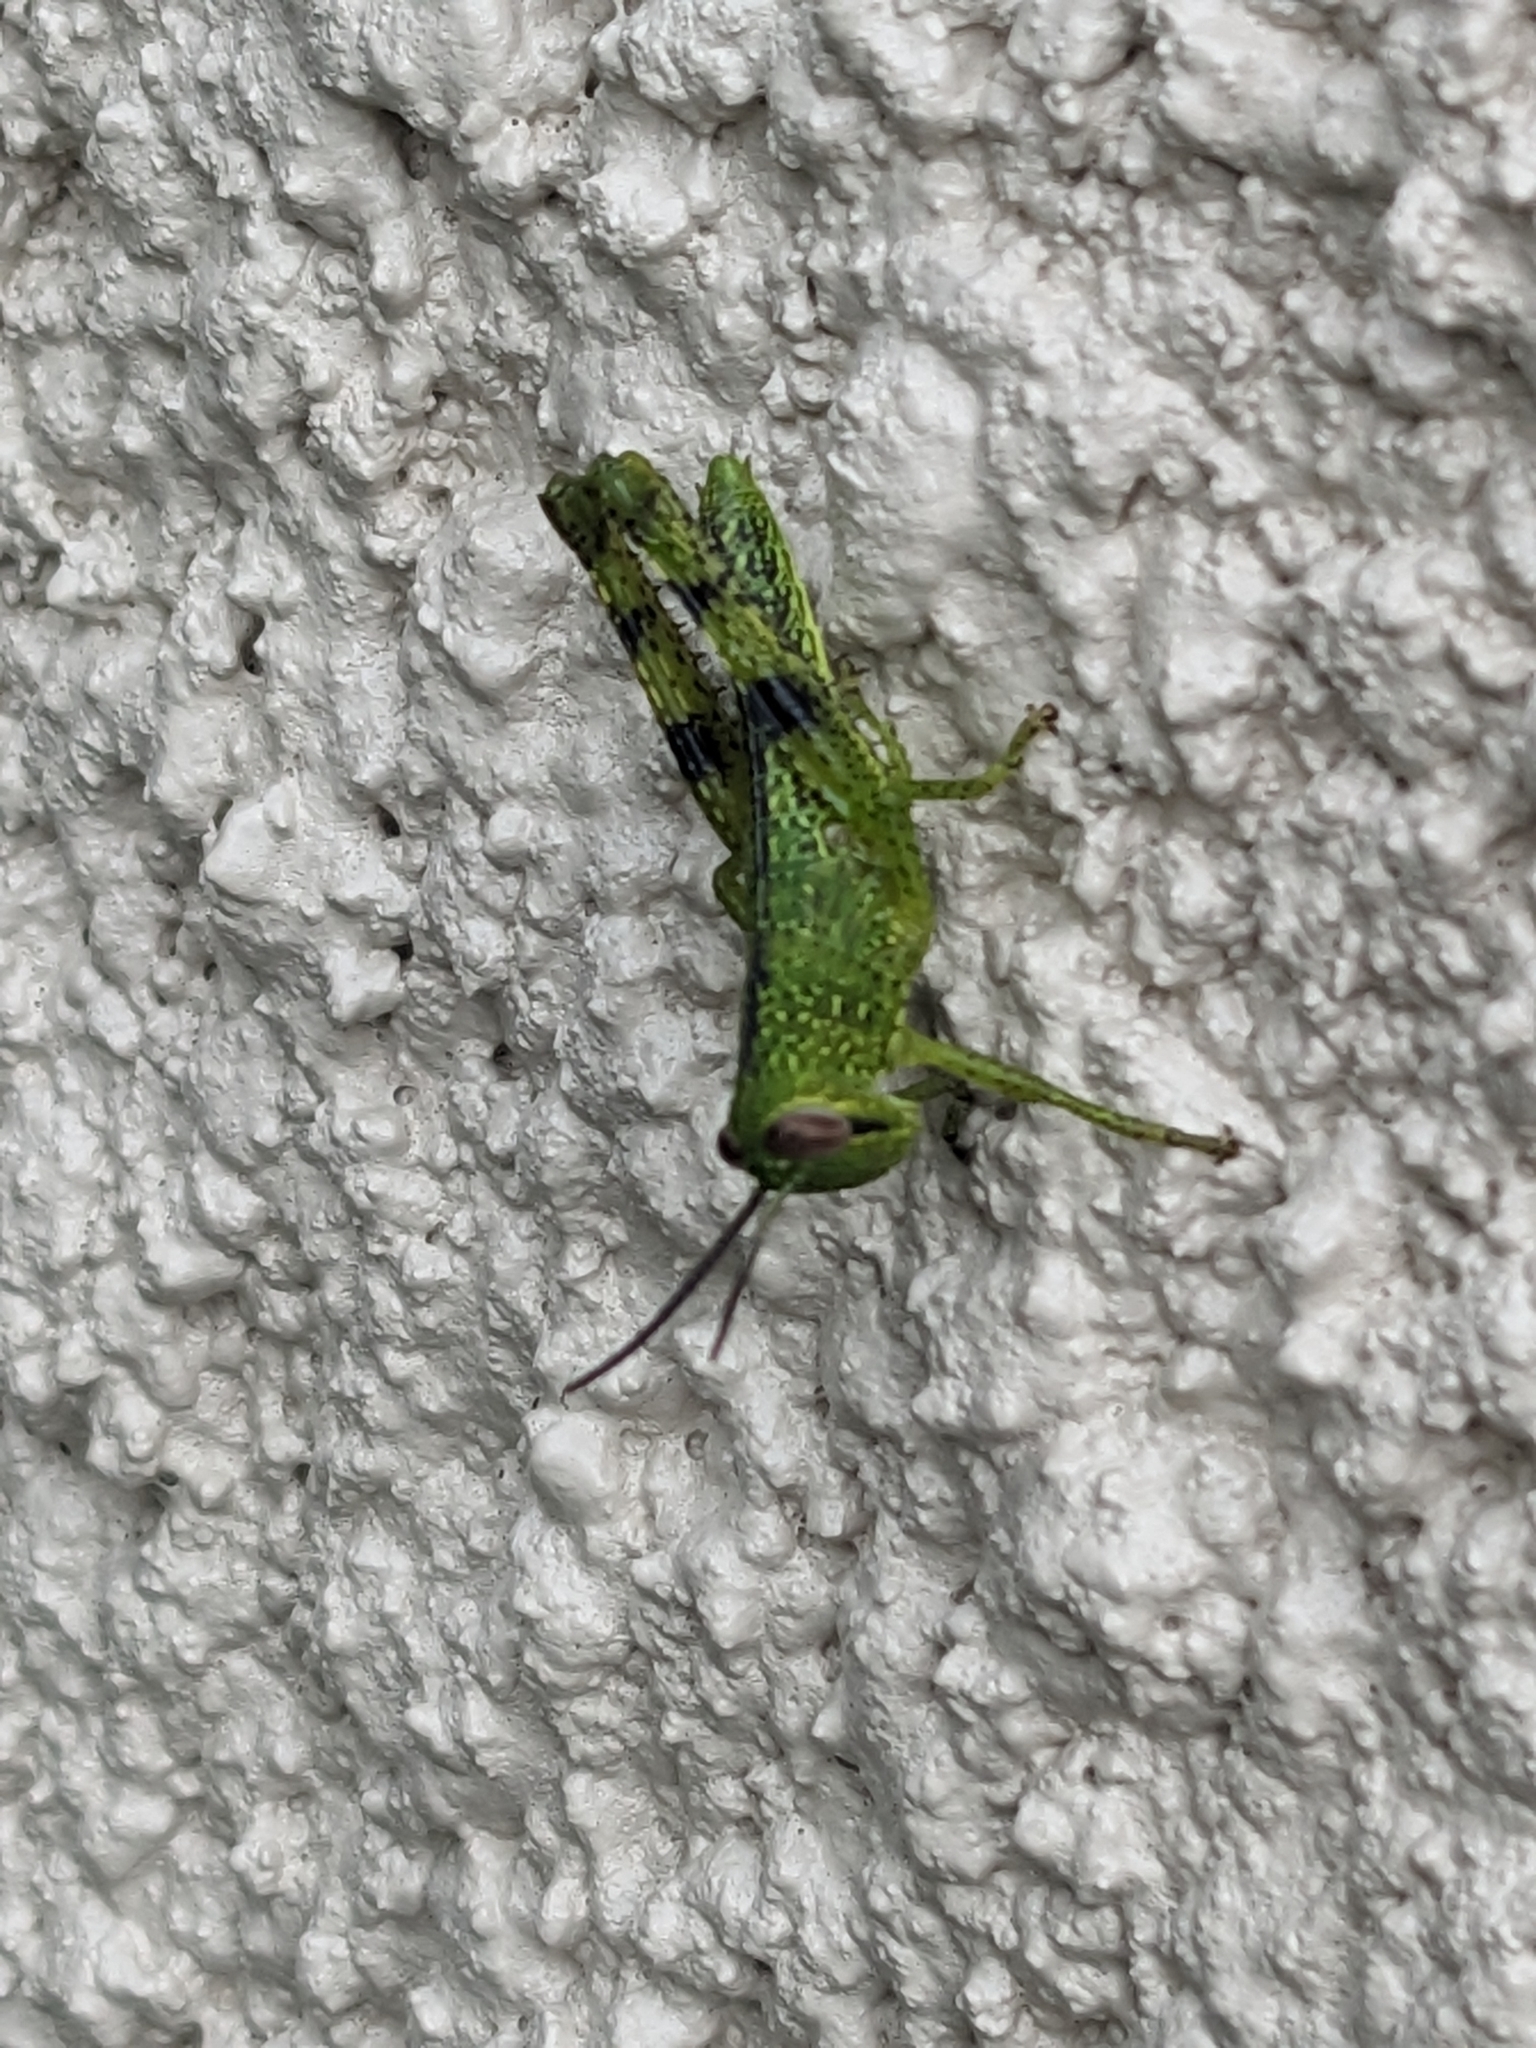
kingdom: Animalia
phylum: Arthropoda
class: Insecta
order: Orthoptera
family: Acrididae
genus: Valanga
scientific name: Valanga irregularis
